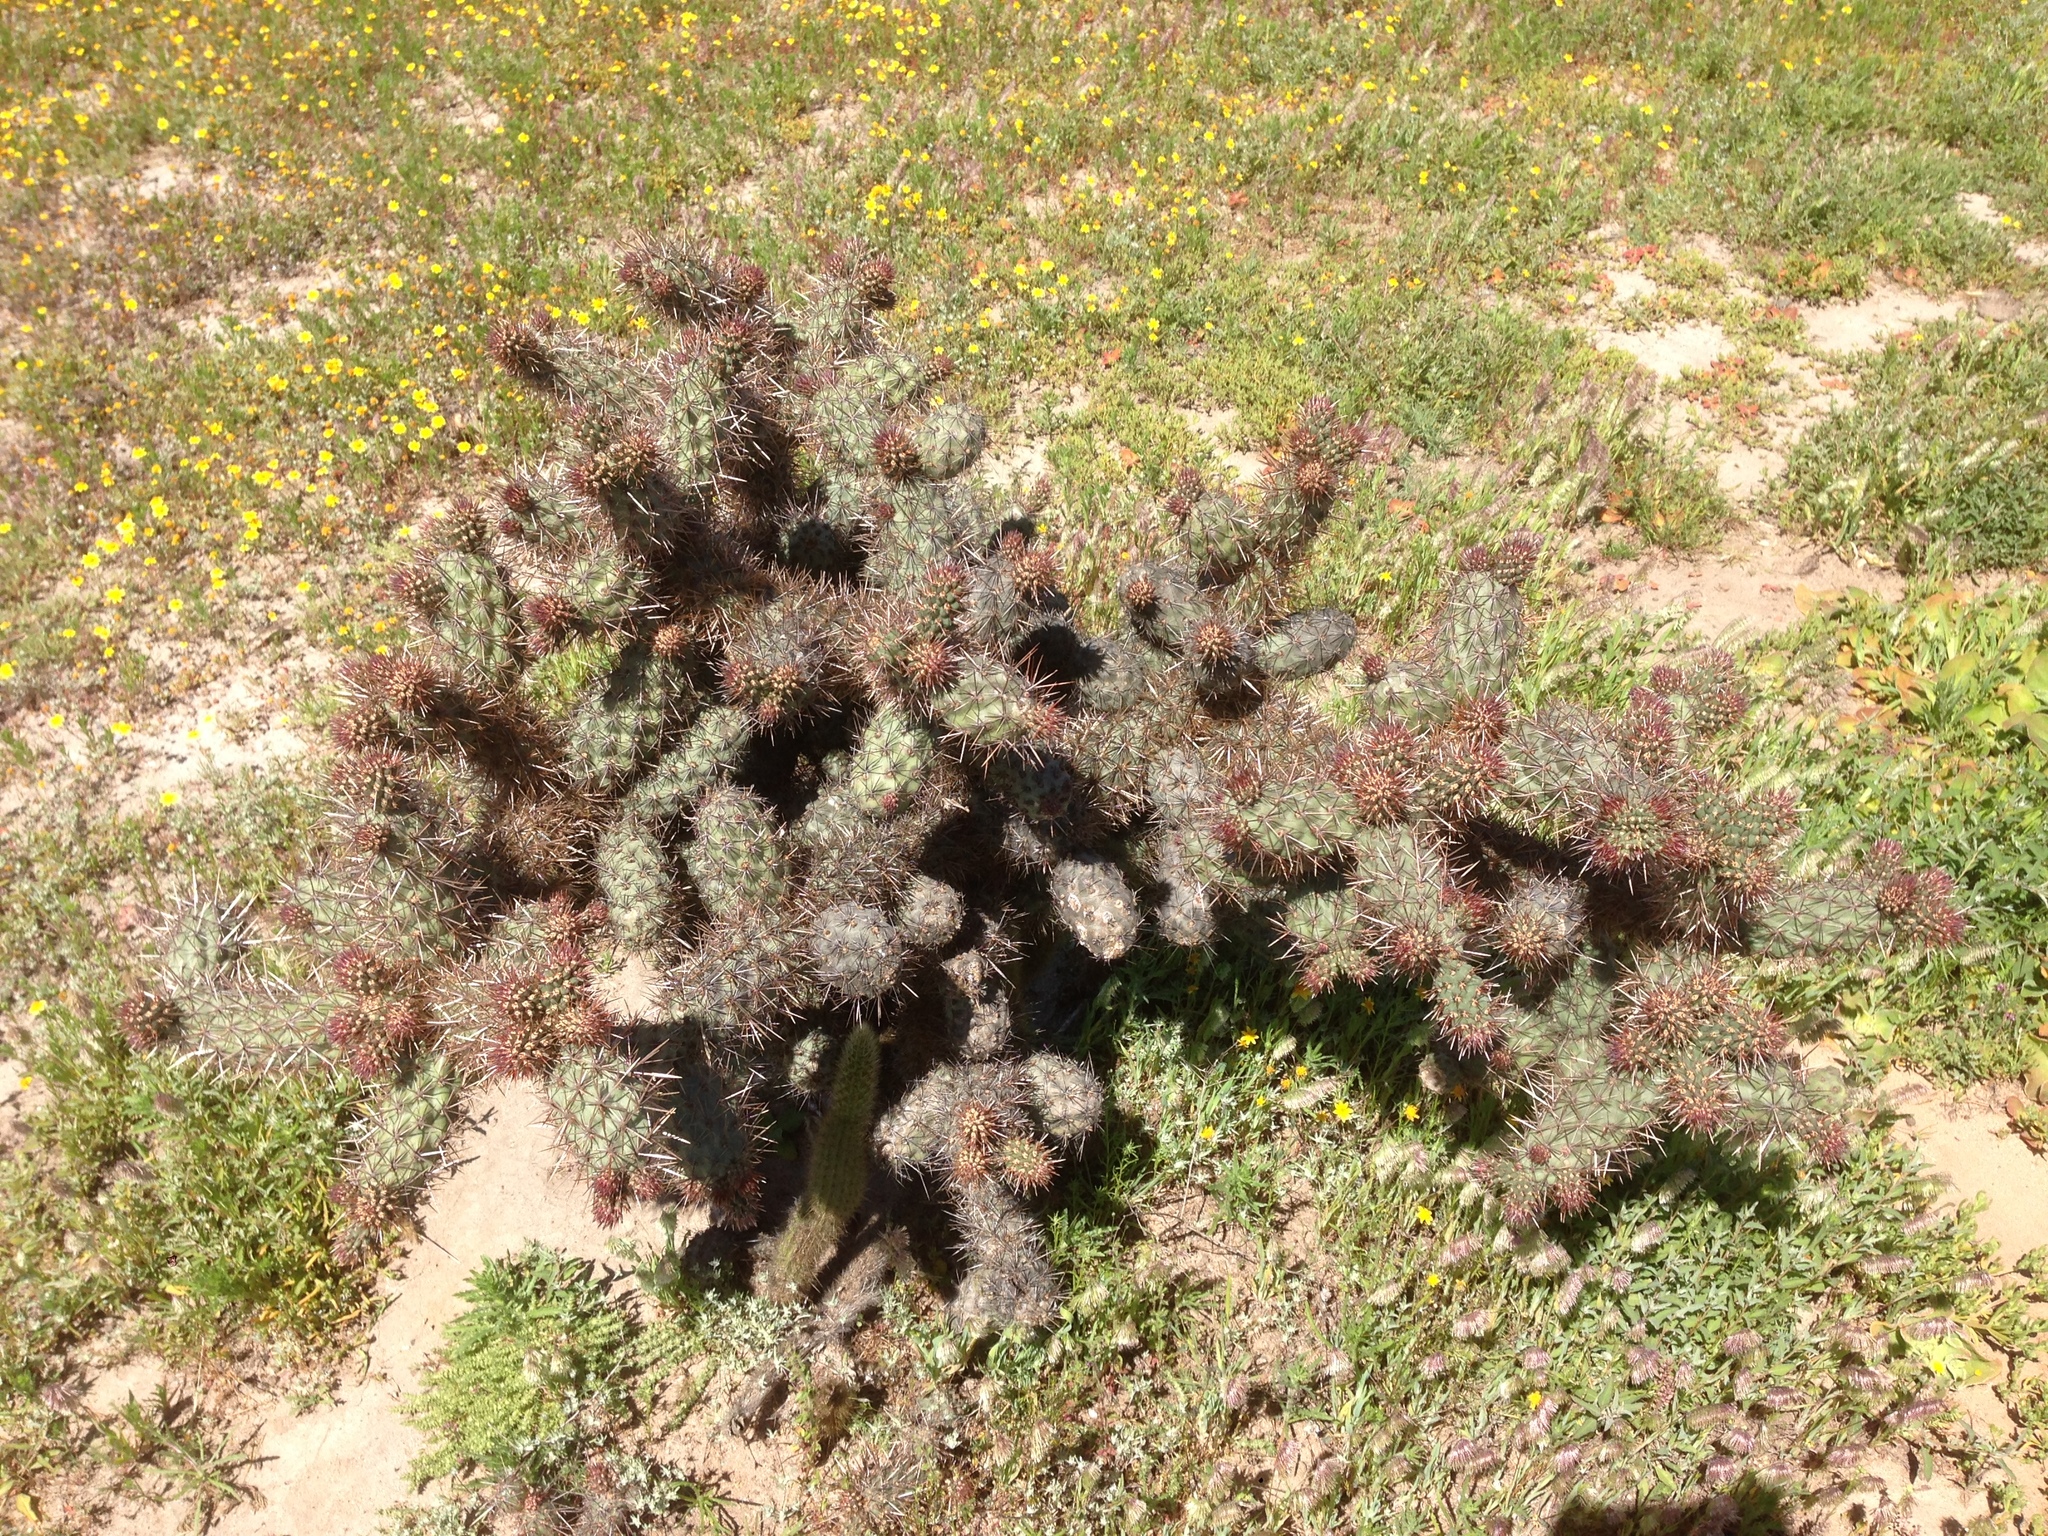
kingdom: Plantae
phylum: Tracheophyta
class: Magnoliopsida
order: Caryophyllales
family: Cactaceae
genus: Cylindropuntia
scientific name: Cylindropuntia prolifera
